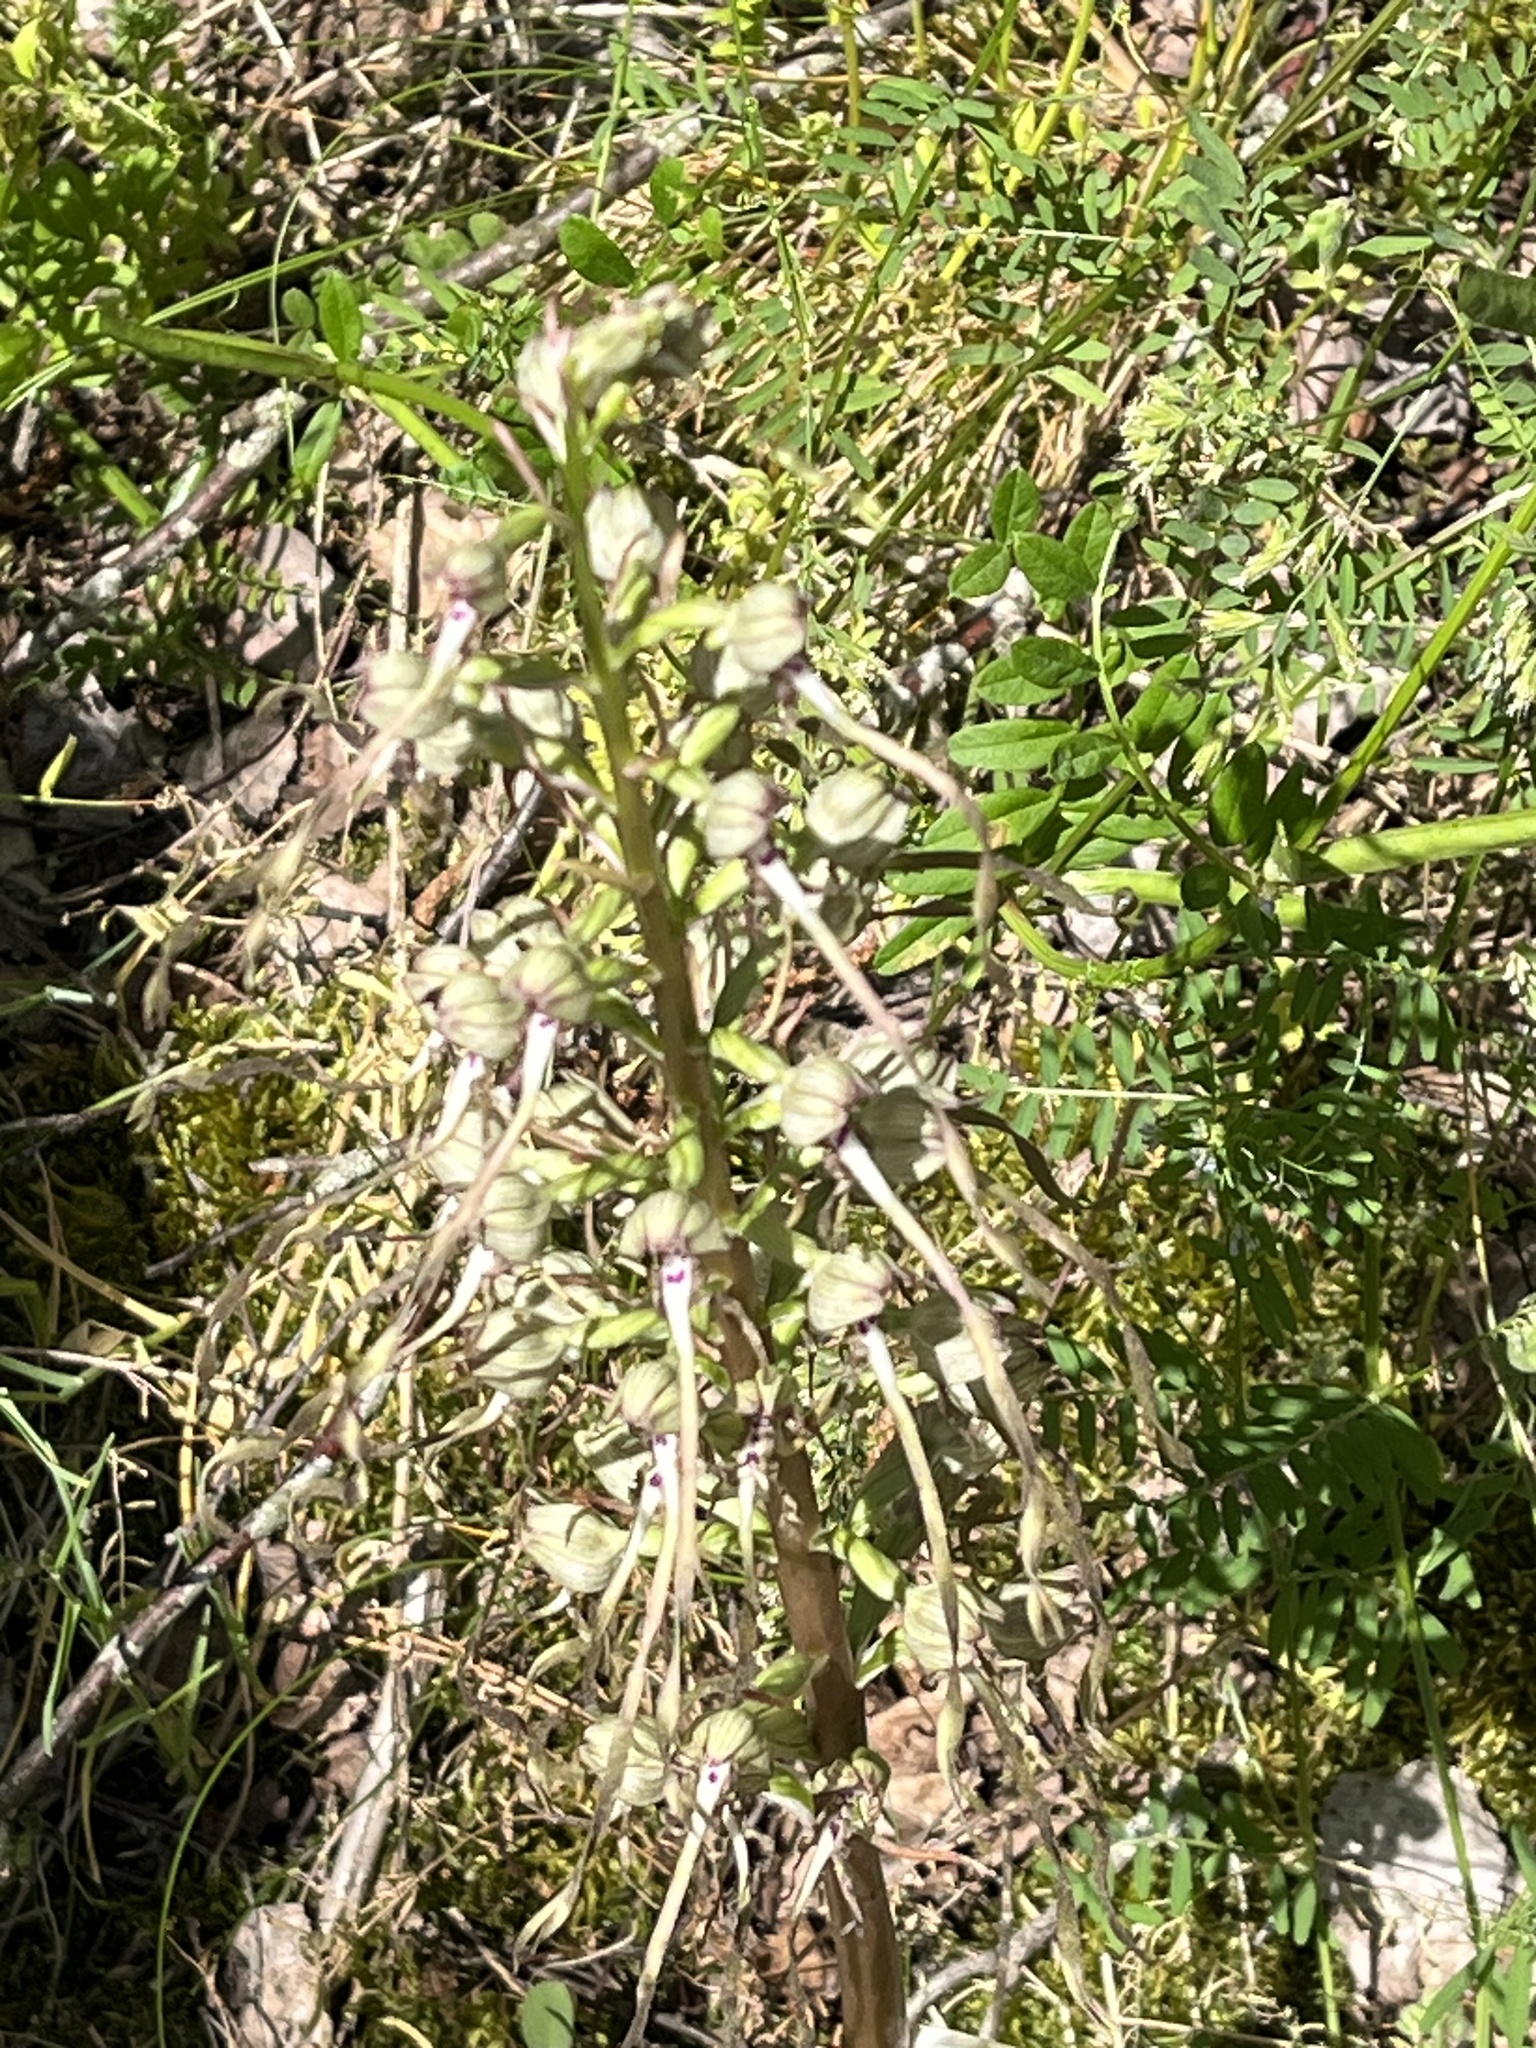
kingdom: Plantae
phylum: Tracheophyta
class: Liliopsida
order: Asparagales
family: Orchidaceae
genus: Himantoglossum
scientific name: Himantoglossum hircinum
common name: Lizard orchid
